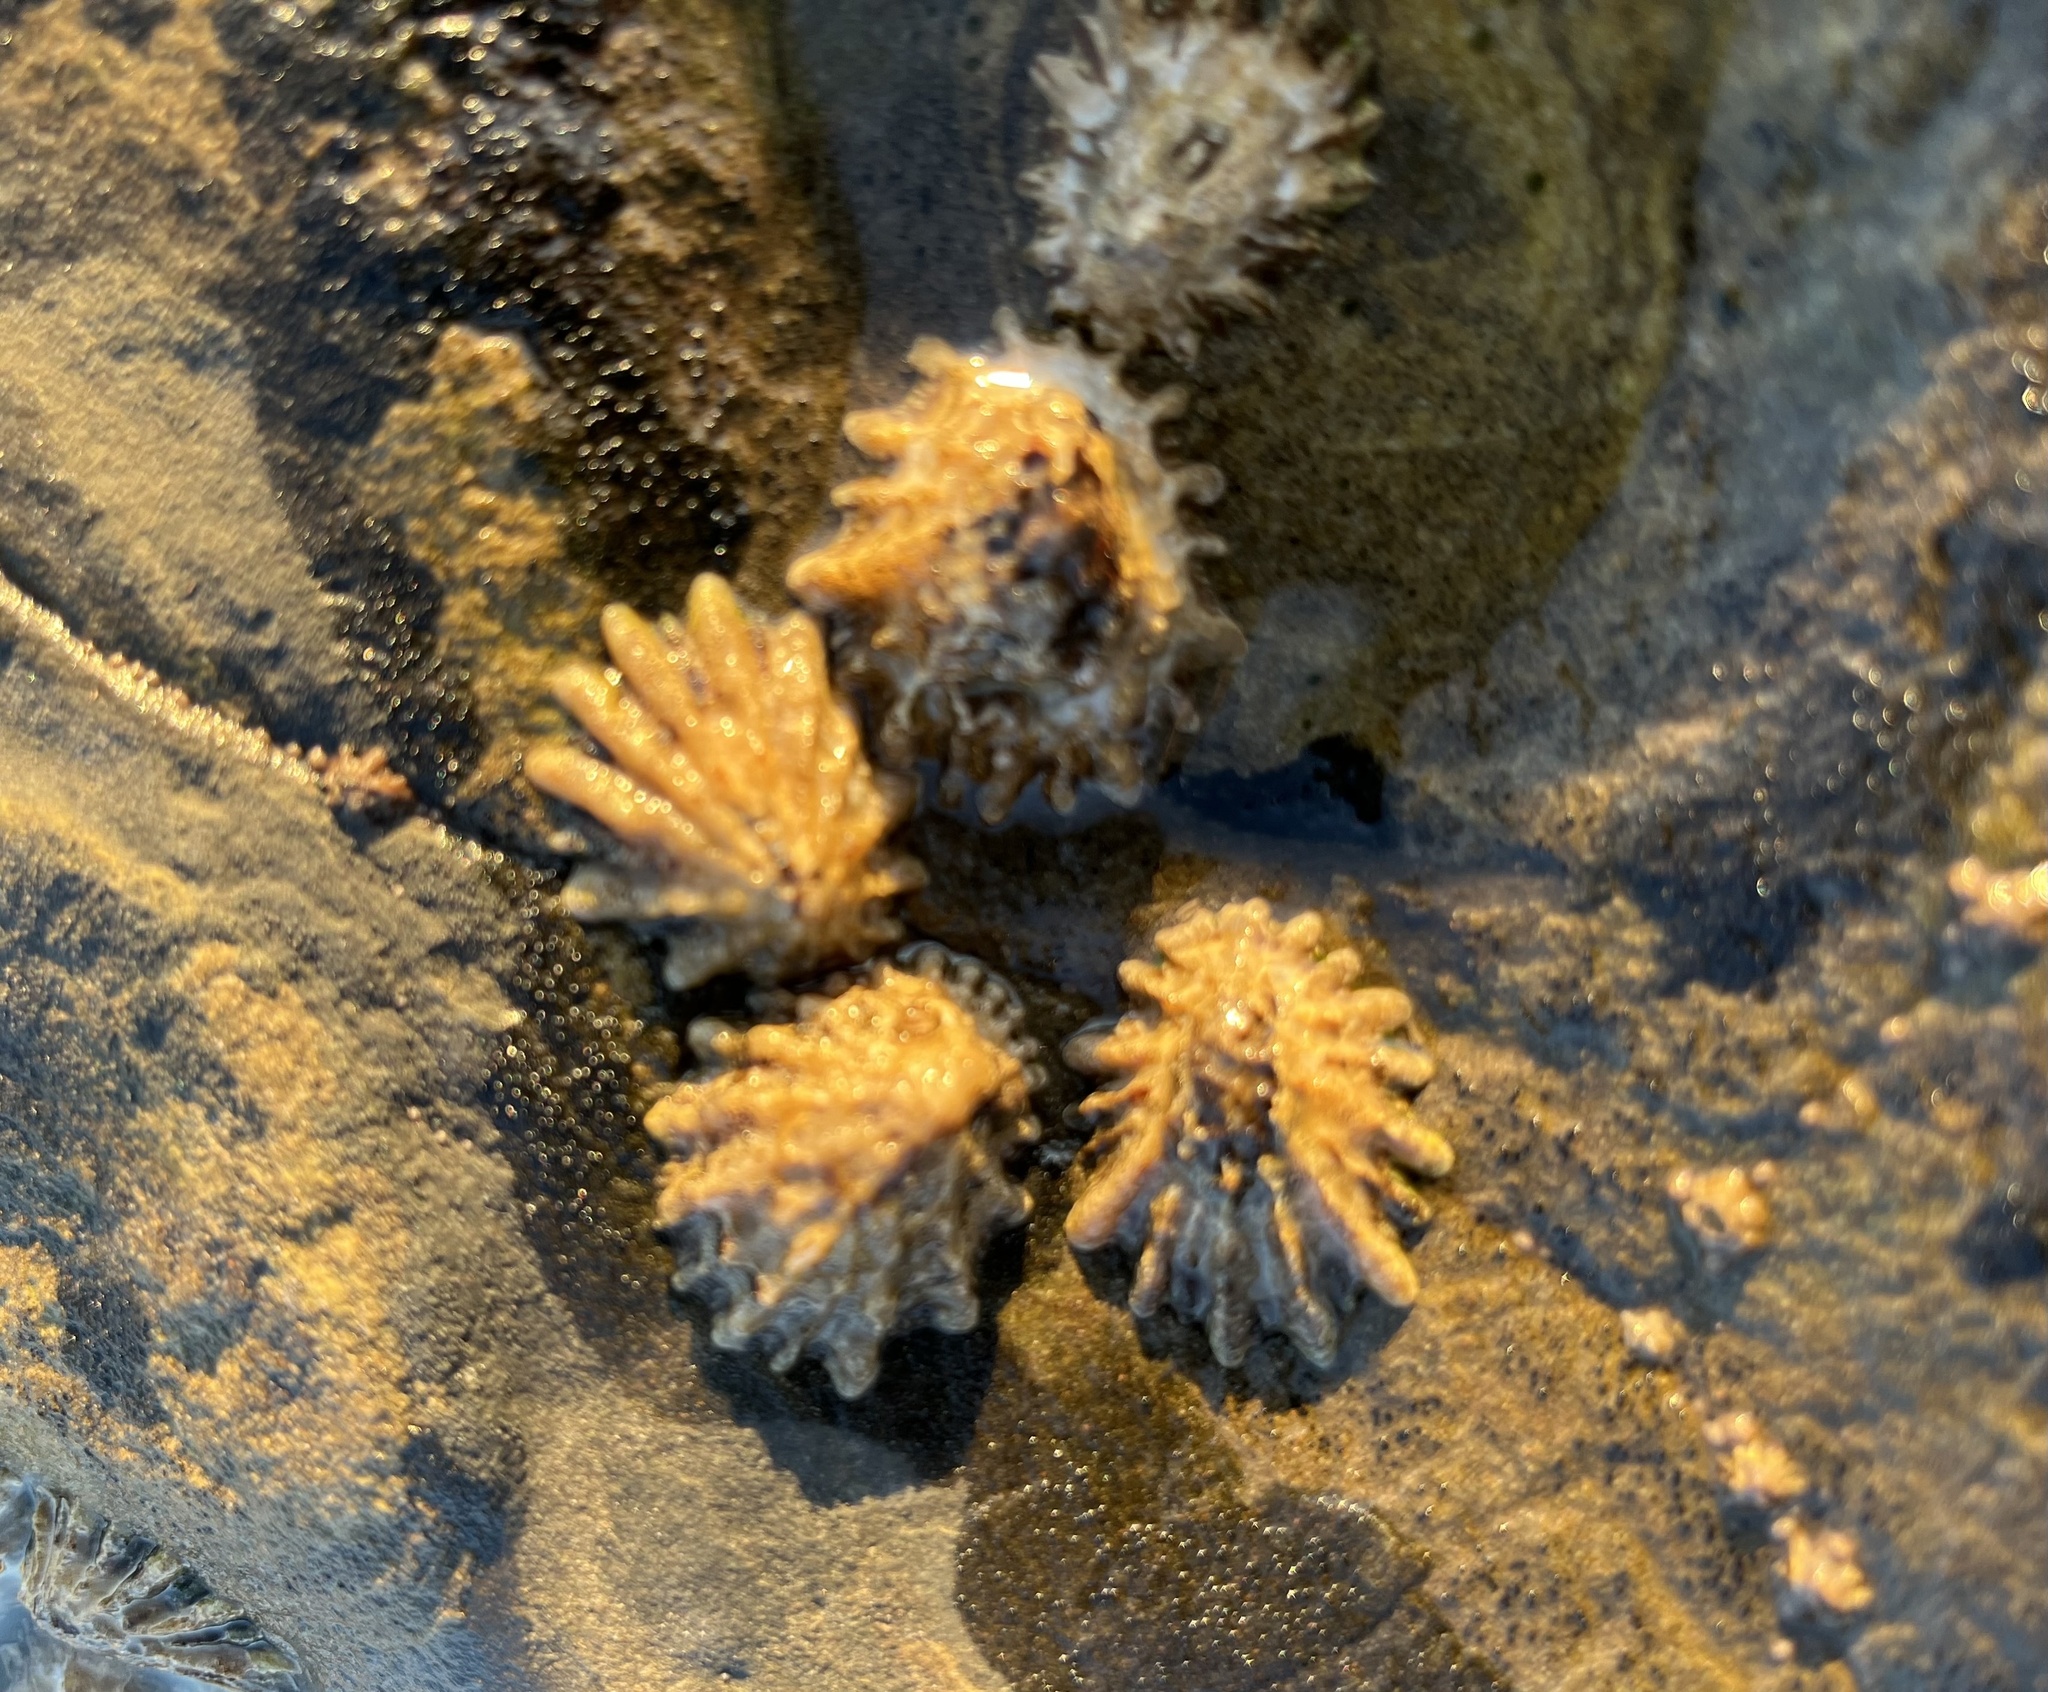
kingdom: Animalia
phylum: Mollusca
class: Gastropoda
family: Lottiidae
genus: Lottia
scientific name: Lottia scabra
